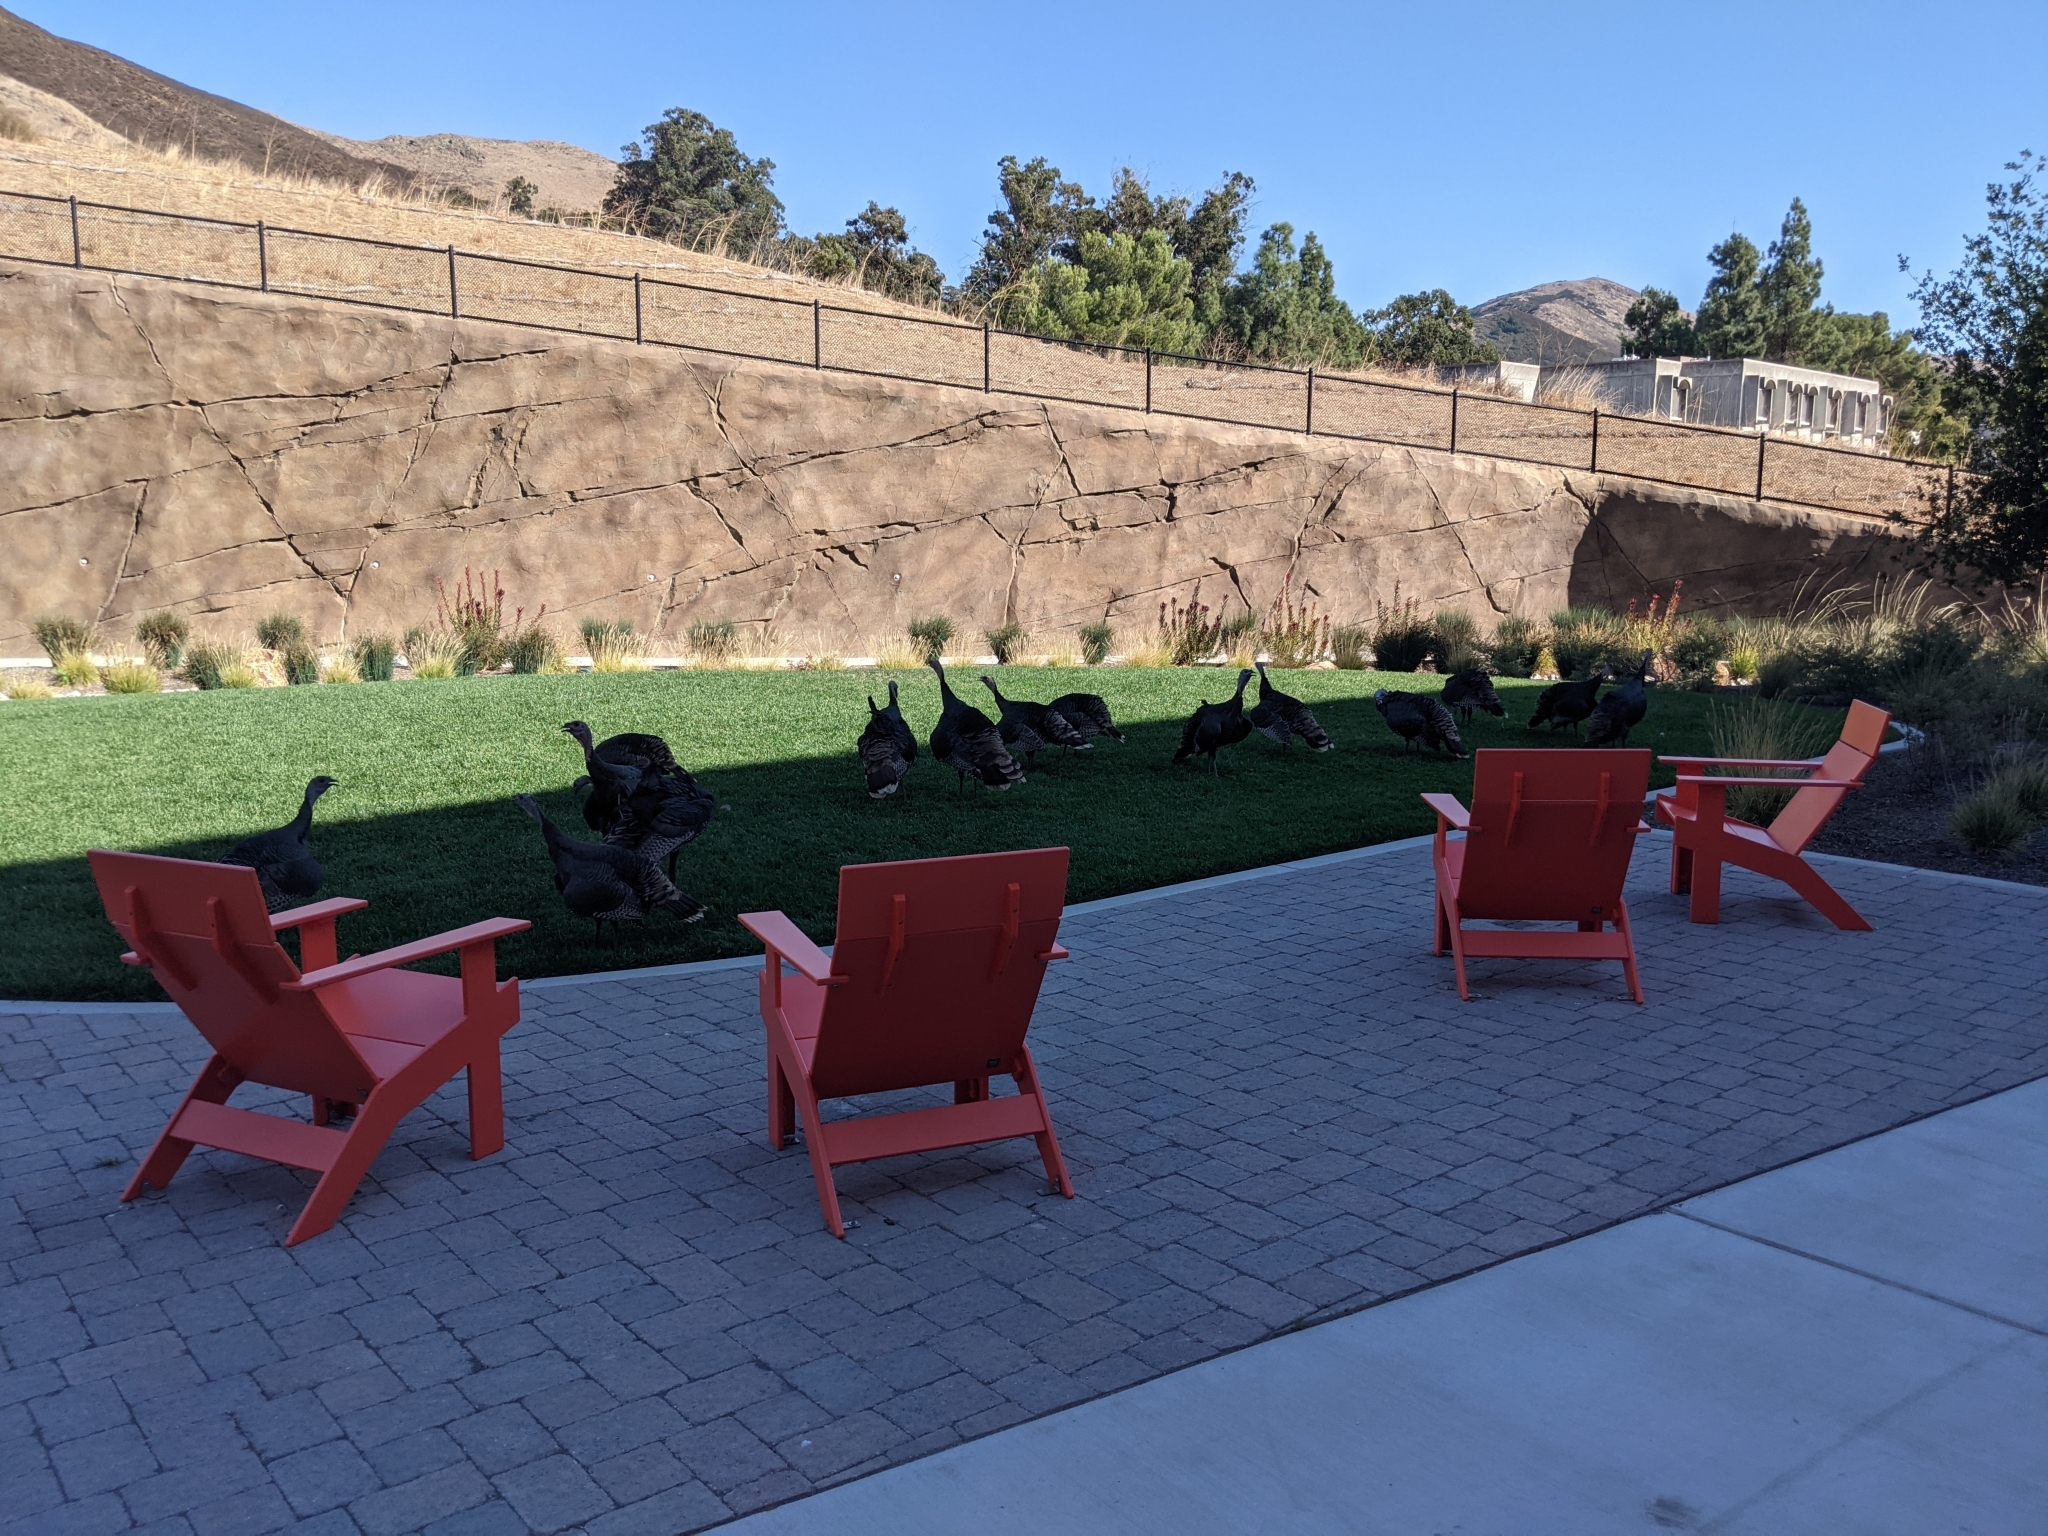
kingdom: Animalia
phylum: Chordata
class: Aves
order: Galliformes
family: Phasianidae
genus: Meleagris
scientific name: Meleagris gallopavo
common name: Wild turkey
